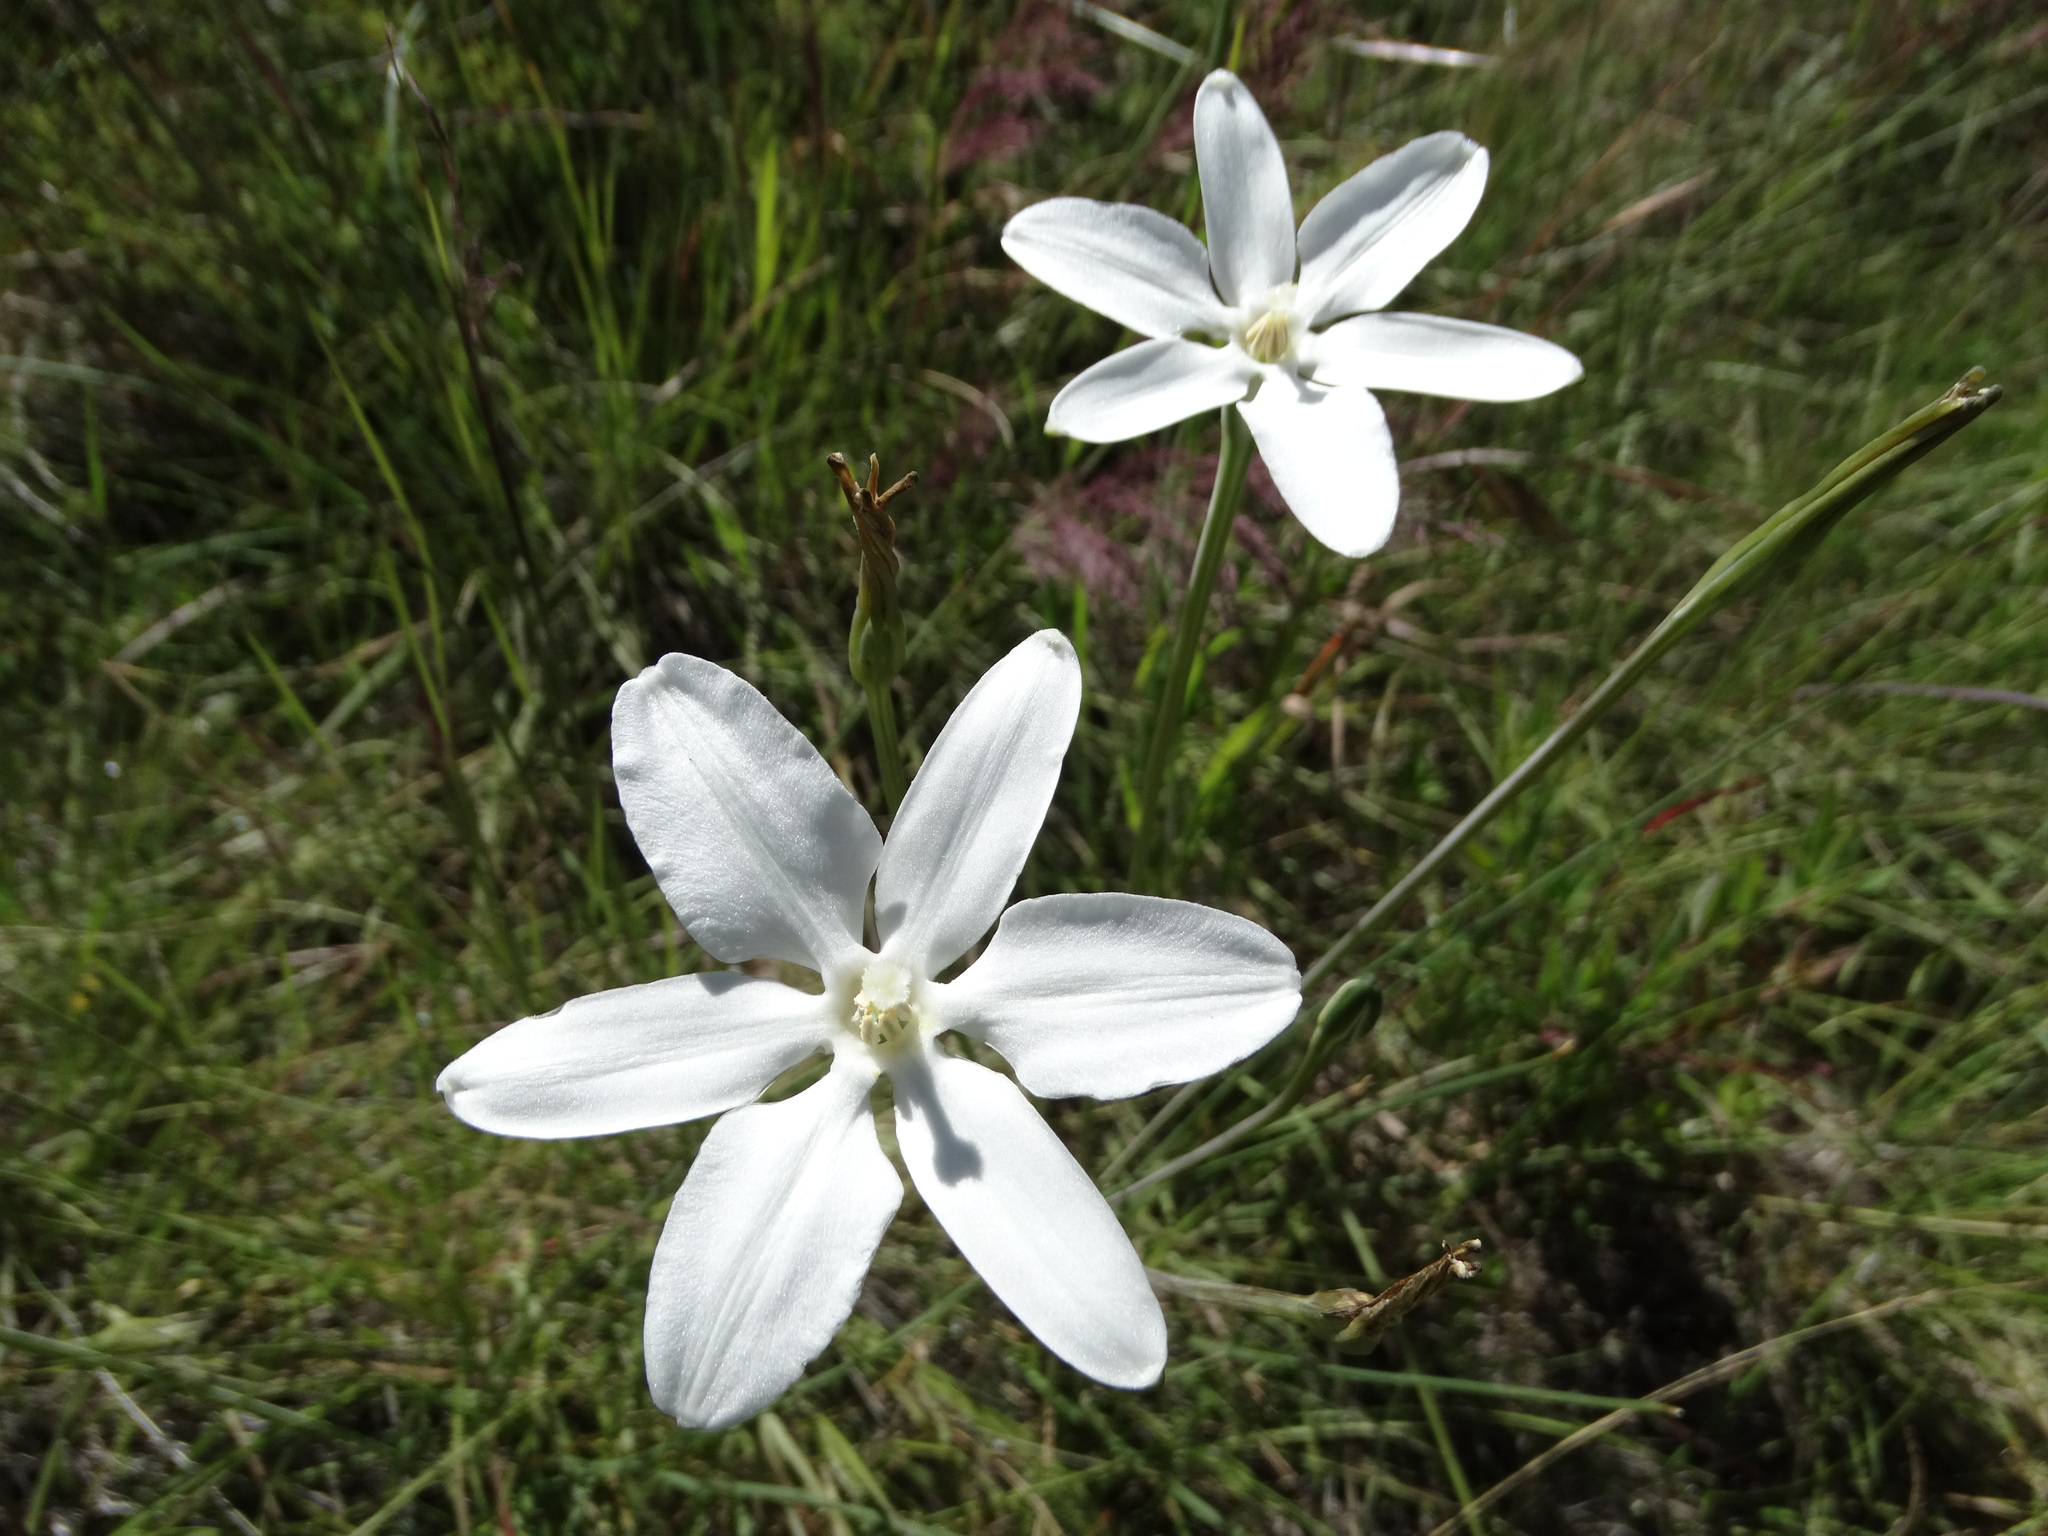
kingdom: Plantae
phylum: Tracheophyta
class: Liliopsida
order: Asparagales
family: Asparagaceae
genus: Milla
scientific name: Milla biflora
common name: Mexican-star
